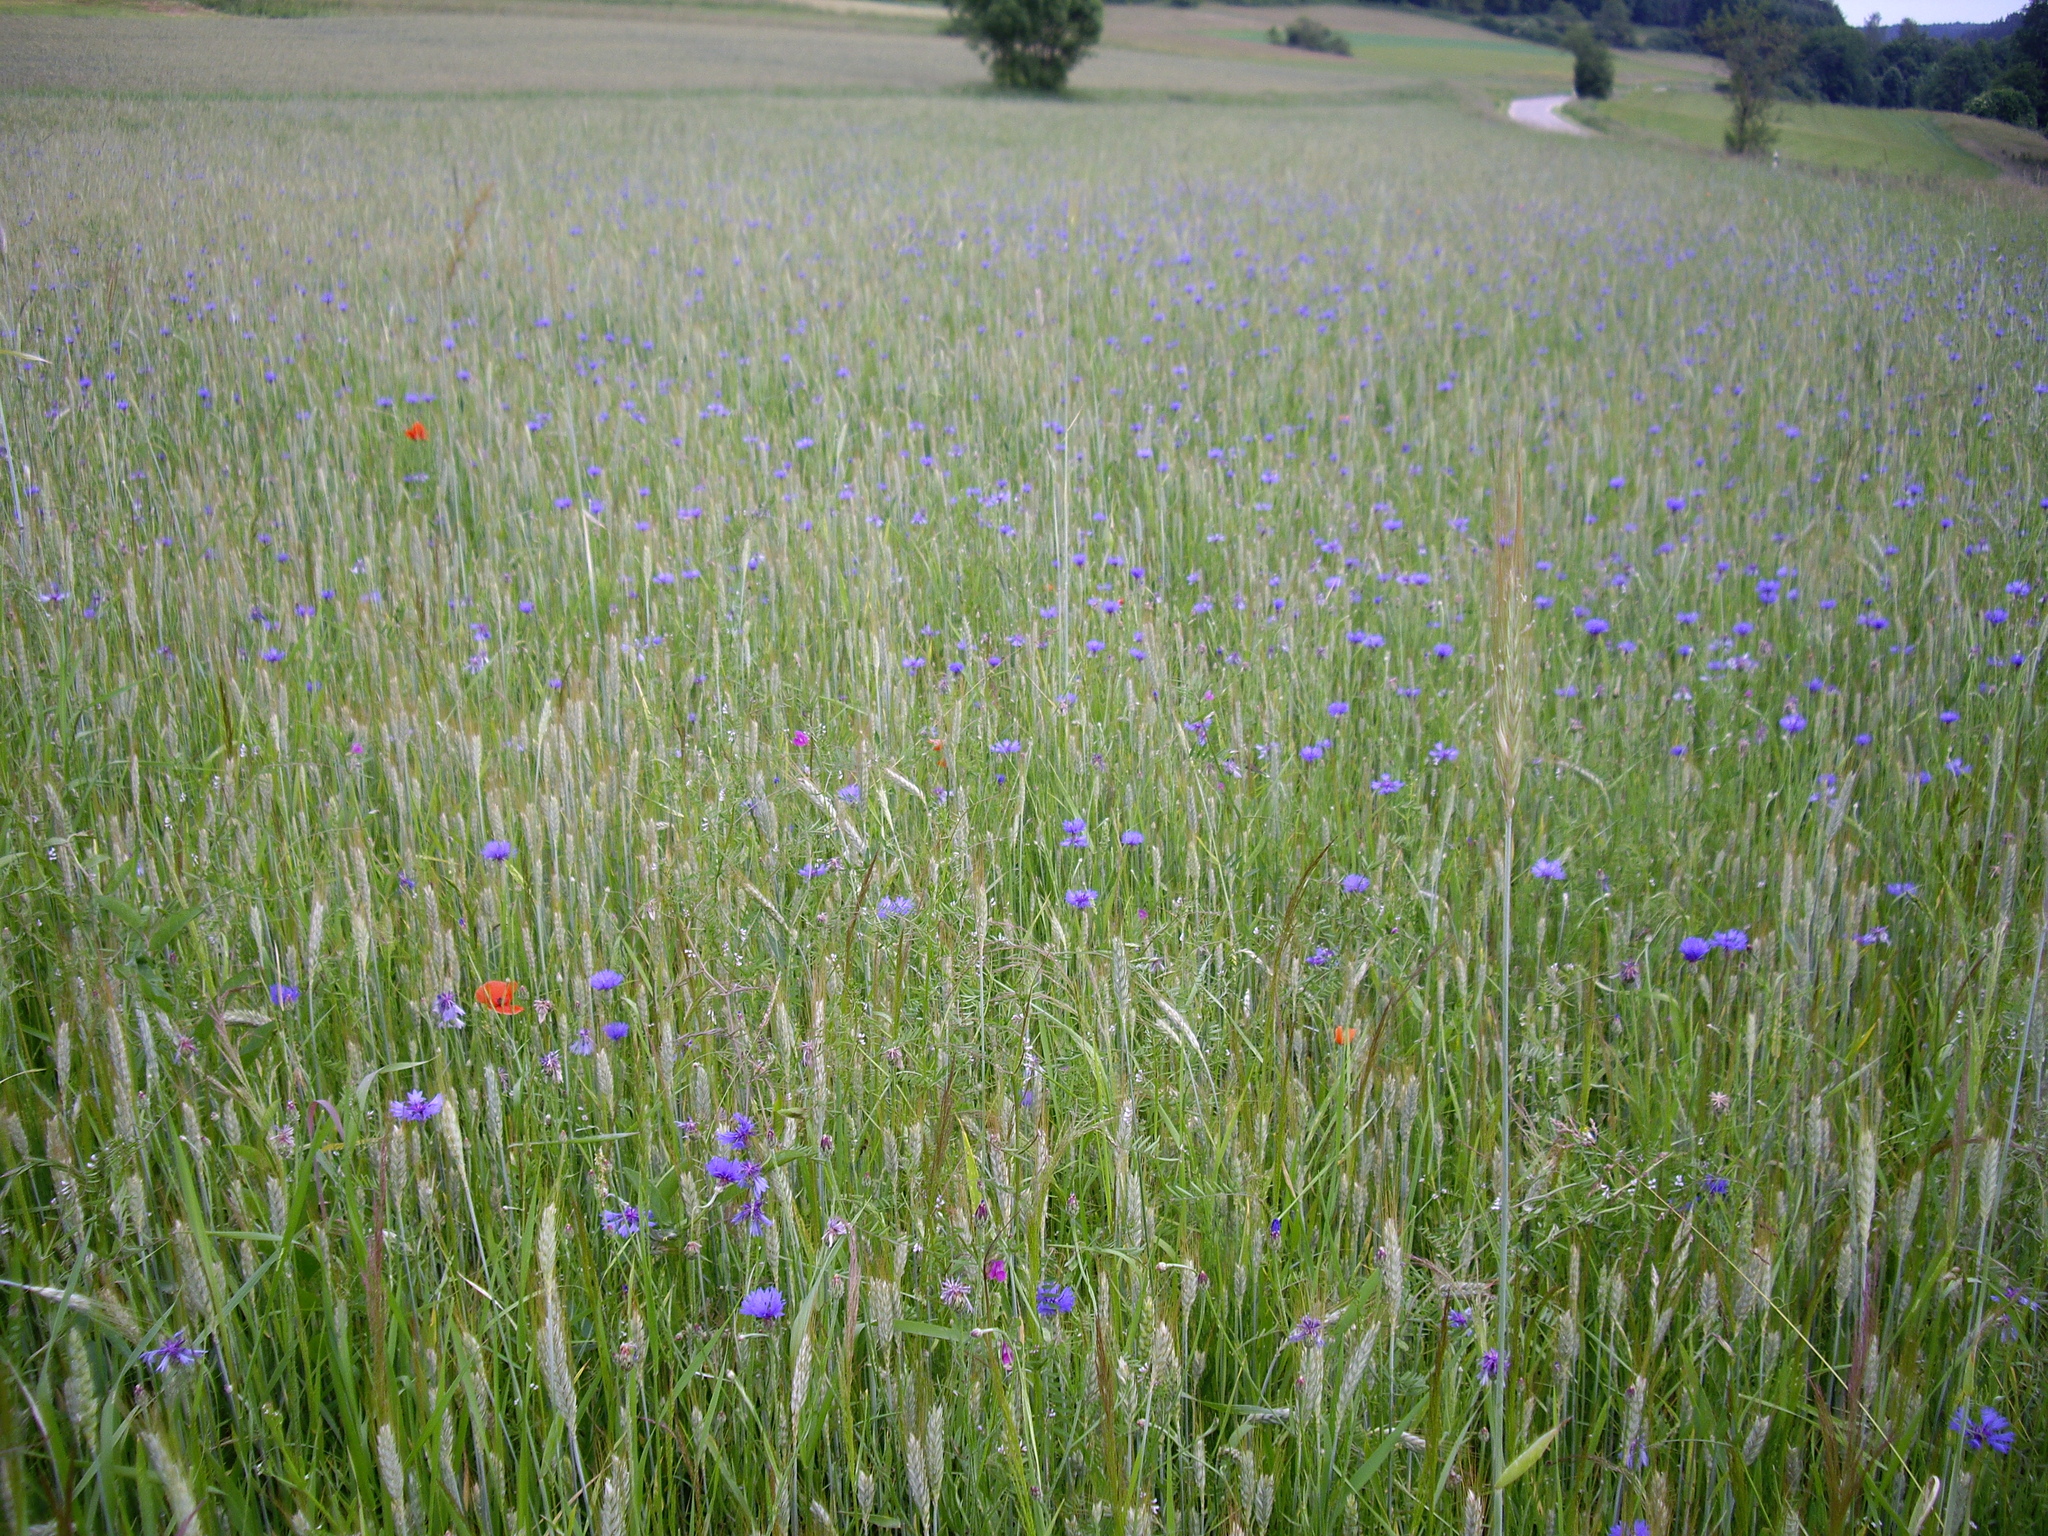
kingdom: Plantae
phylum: Tracheophyta
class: Magnoliopsida
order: Asterales
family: Asteraceae
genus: Centaurea
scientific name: Centaurea cyanus
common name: Cornflower
